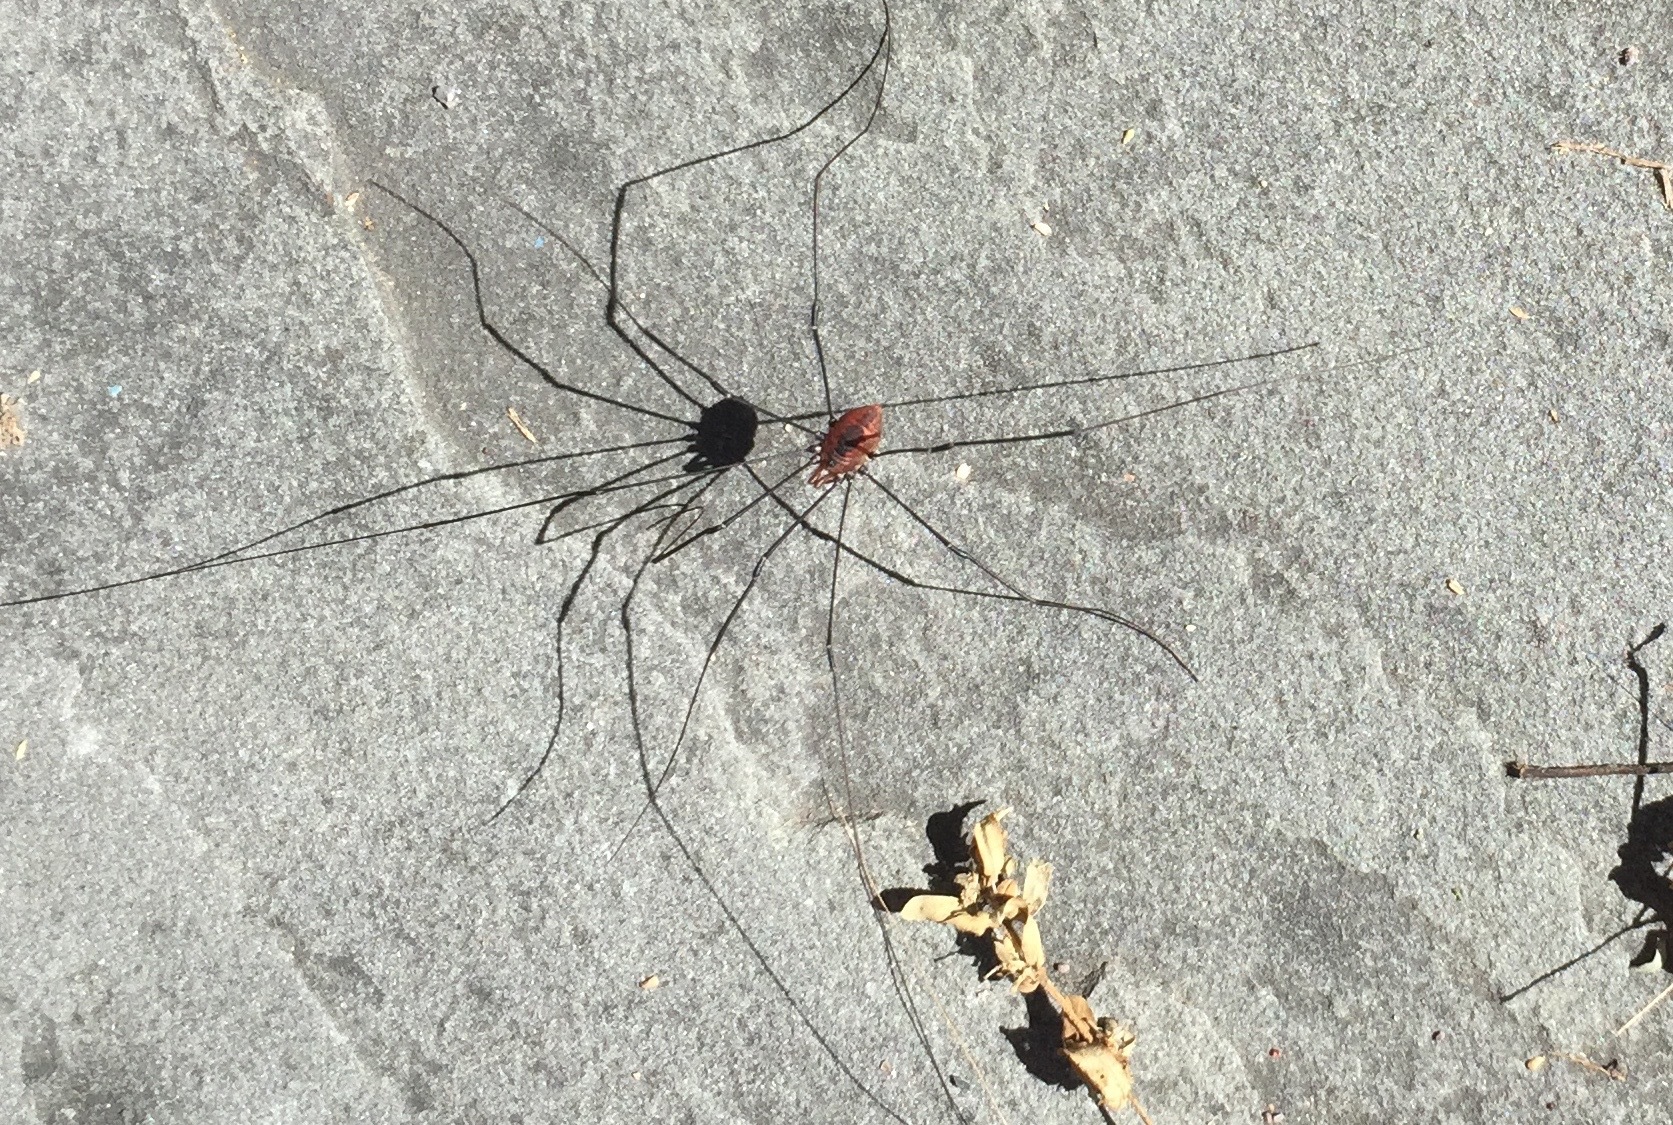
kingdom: Animalia
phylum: Arthropoda
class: Arachnida
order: Opiliones
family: Sclerosomatidae
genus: Leiobunum
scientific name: Leiobunum vittatum
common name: Eastern harvestman
